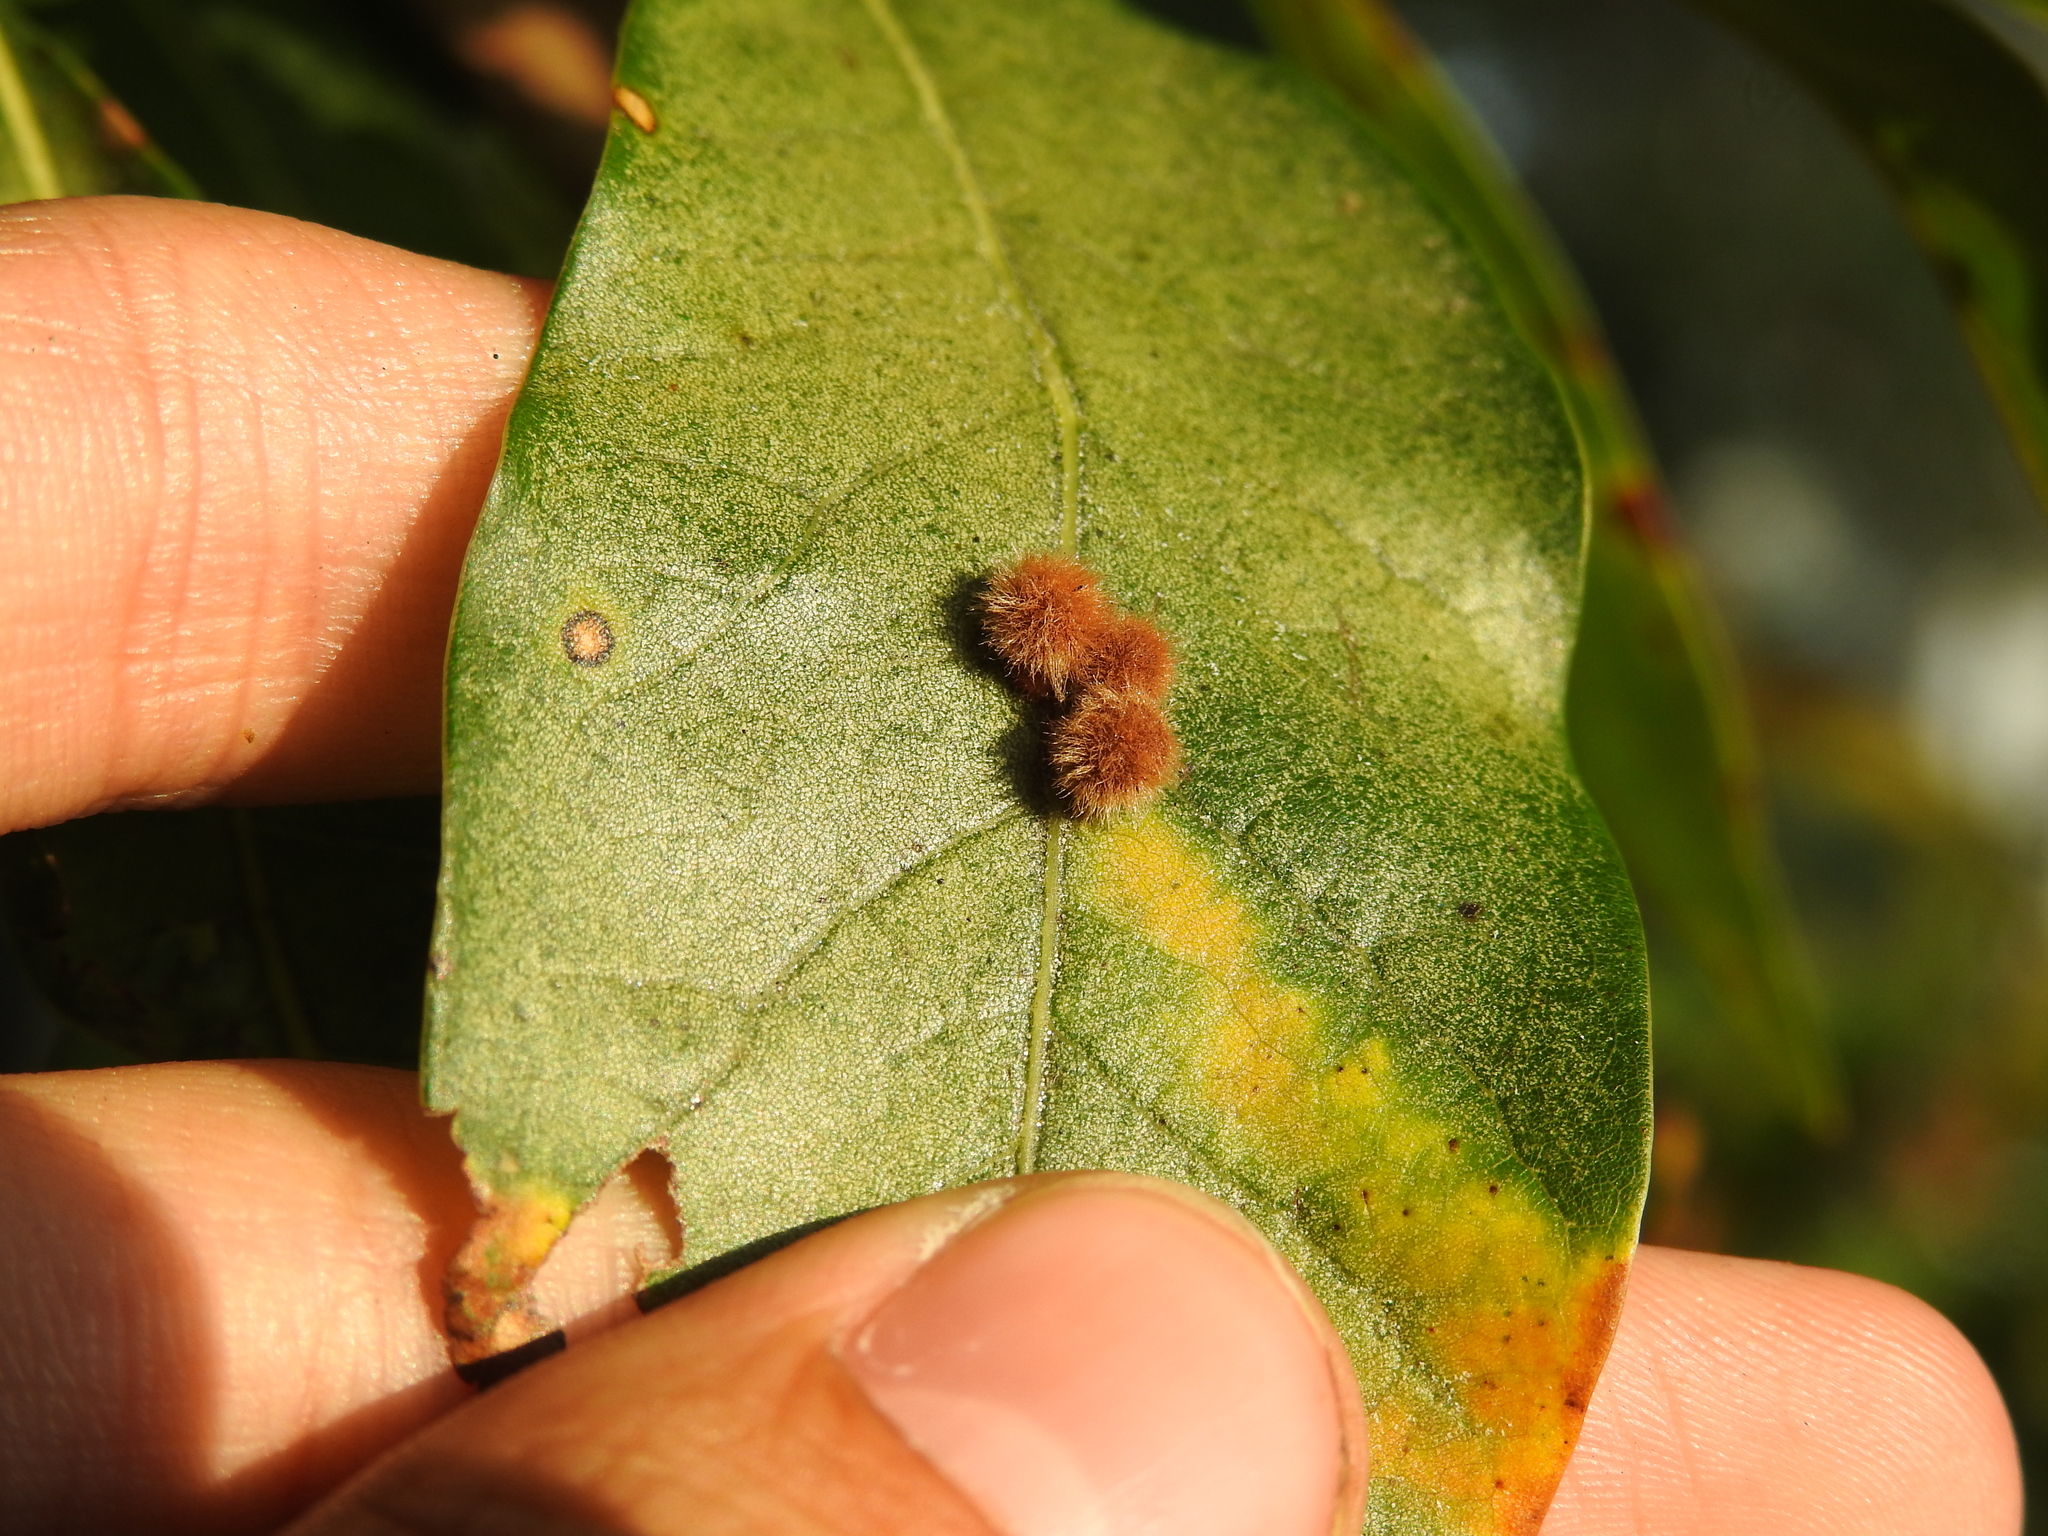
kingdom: Animalia
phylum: Arthropoda
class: Insecta
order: Hymenoptera
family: Cynipidae
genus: Callirhytis
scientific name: Callirhytis
